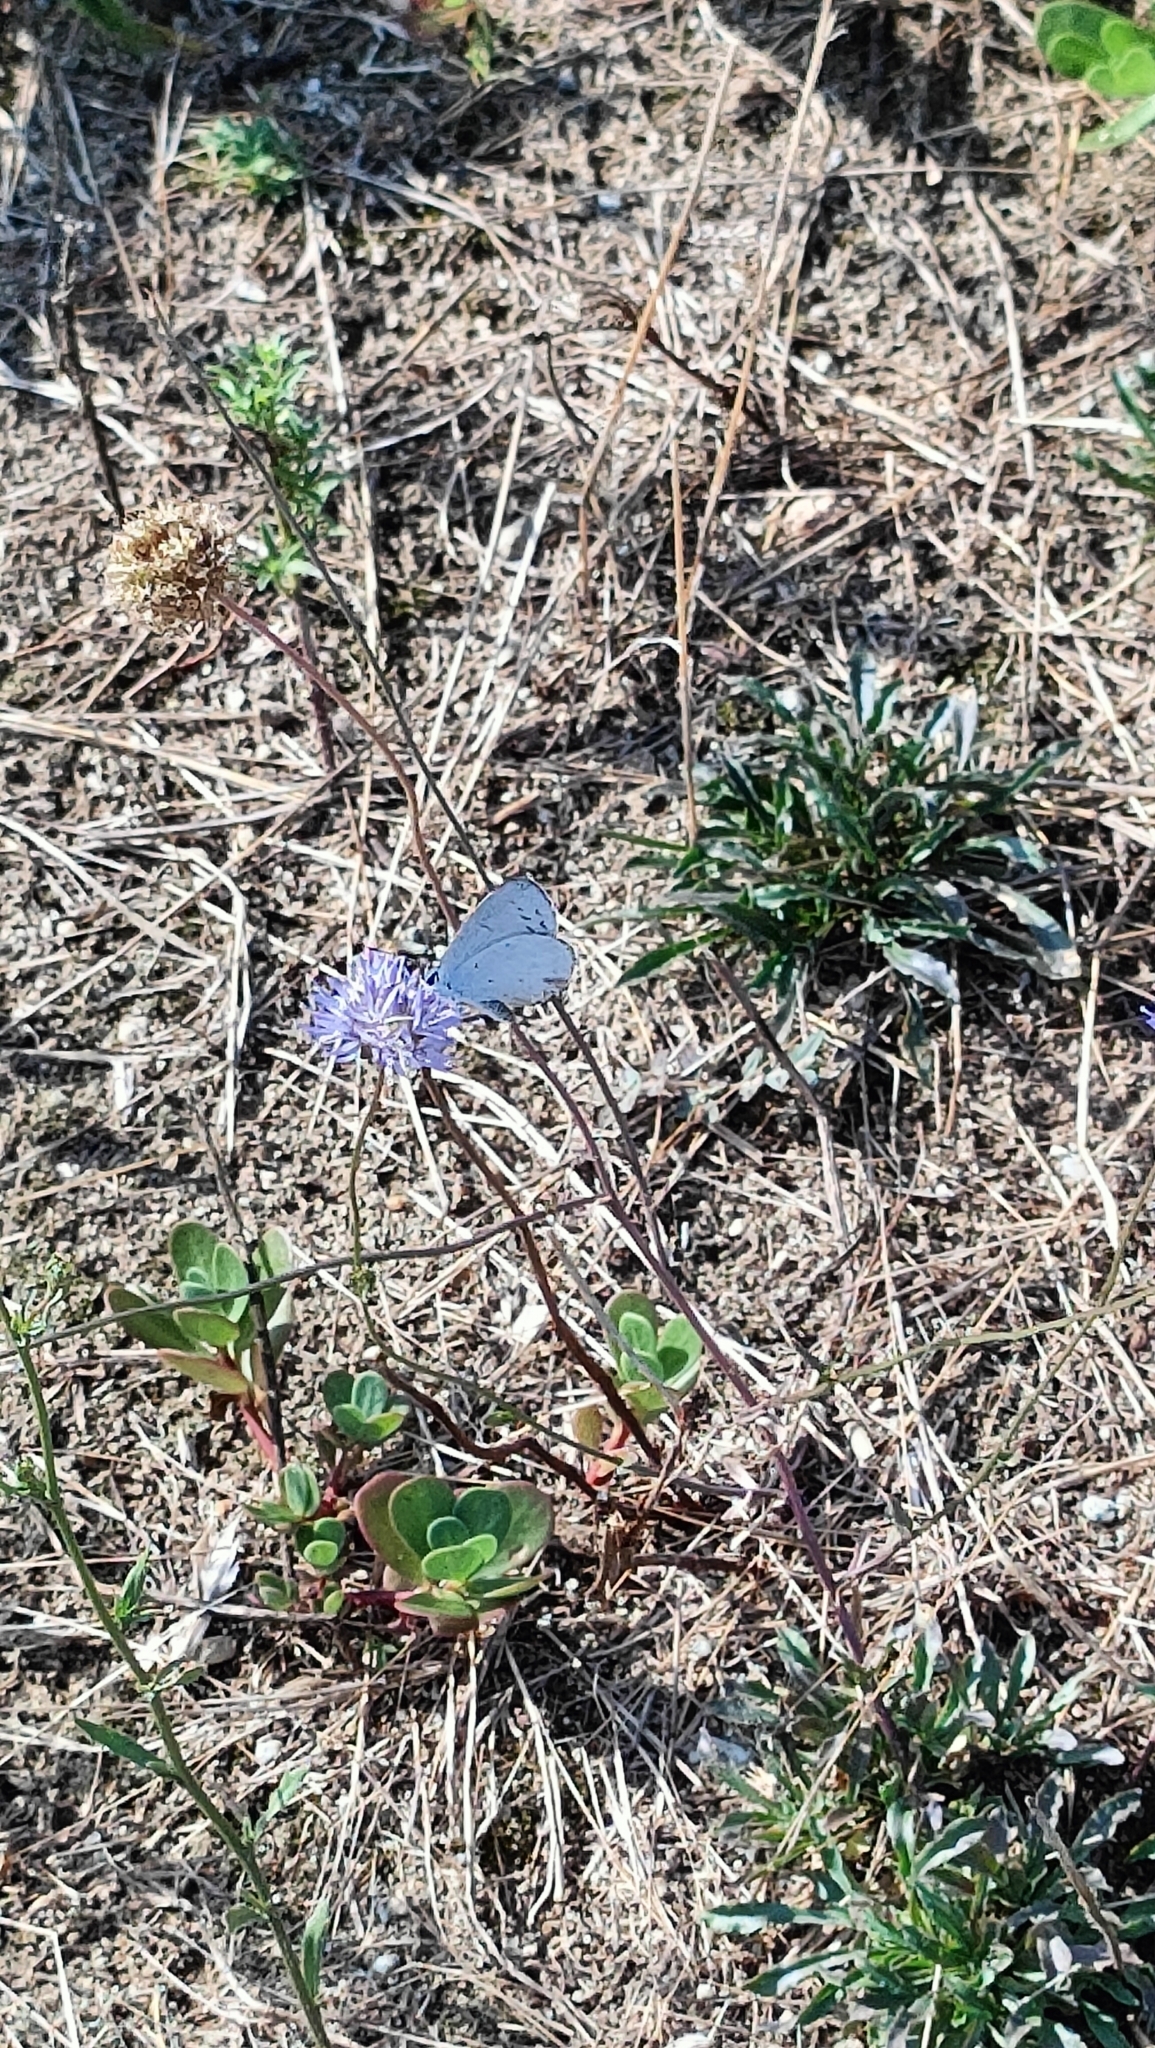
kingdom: Animalia
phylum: Arthropoda
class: Insecta
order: Lepidoptera
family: Lycaenidae
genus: Celastrina
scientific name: Celastrina argiolus
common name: Holly blue
